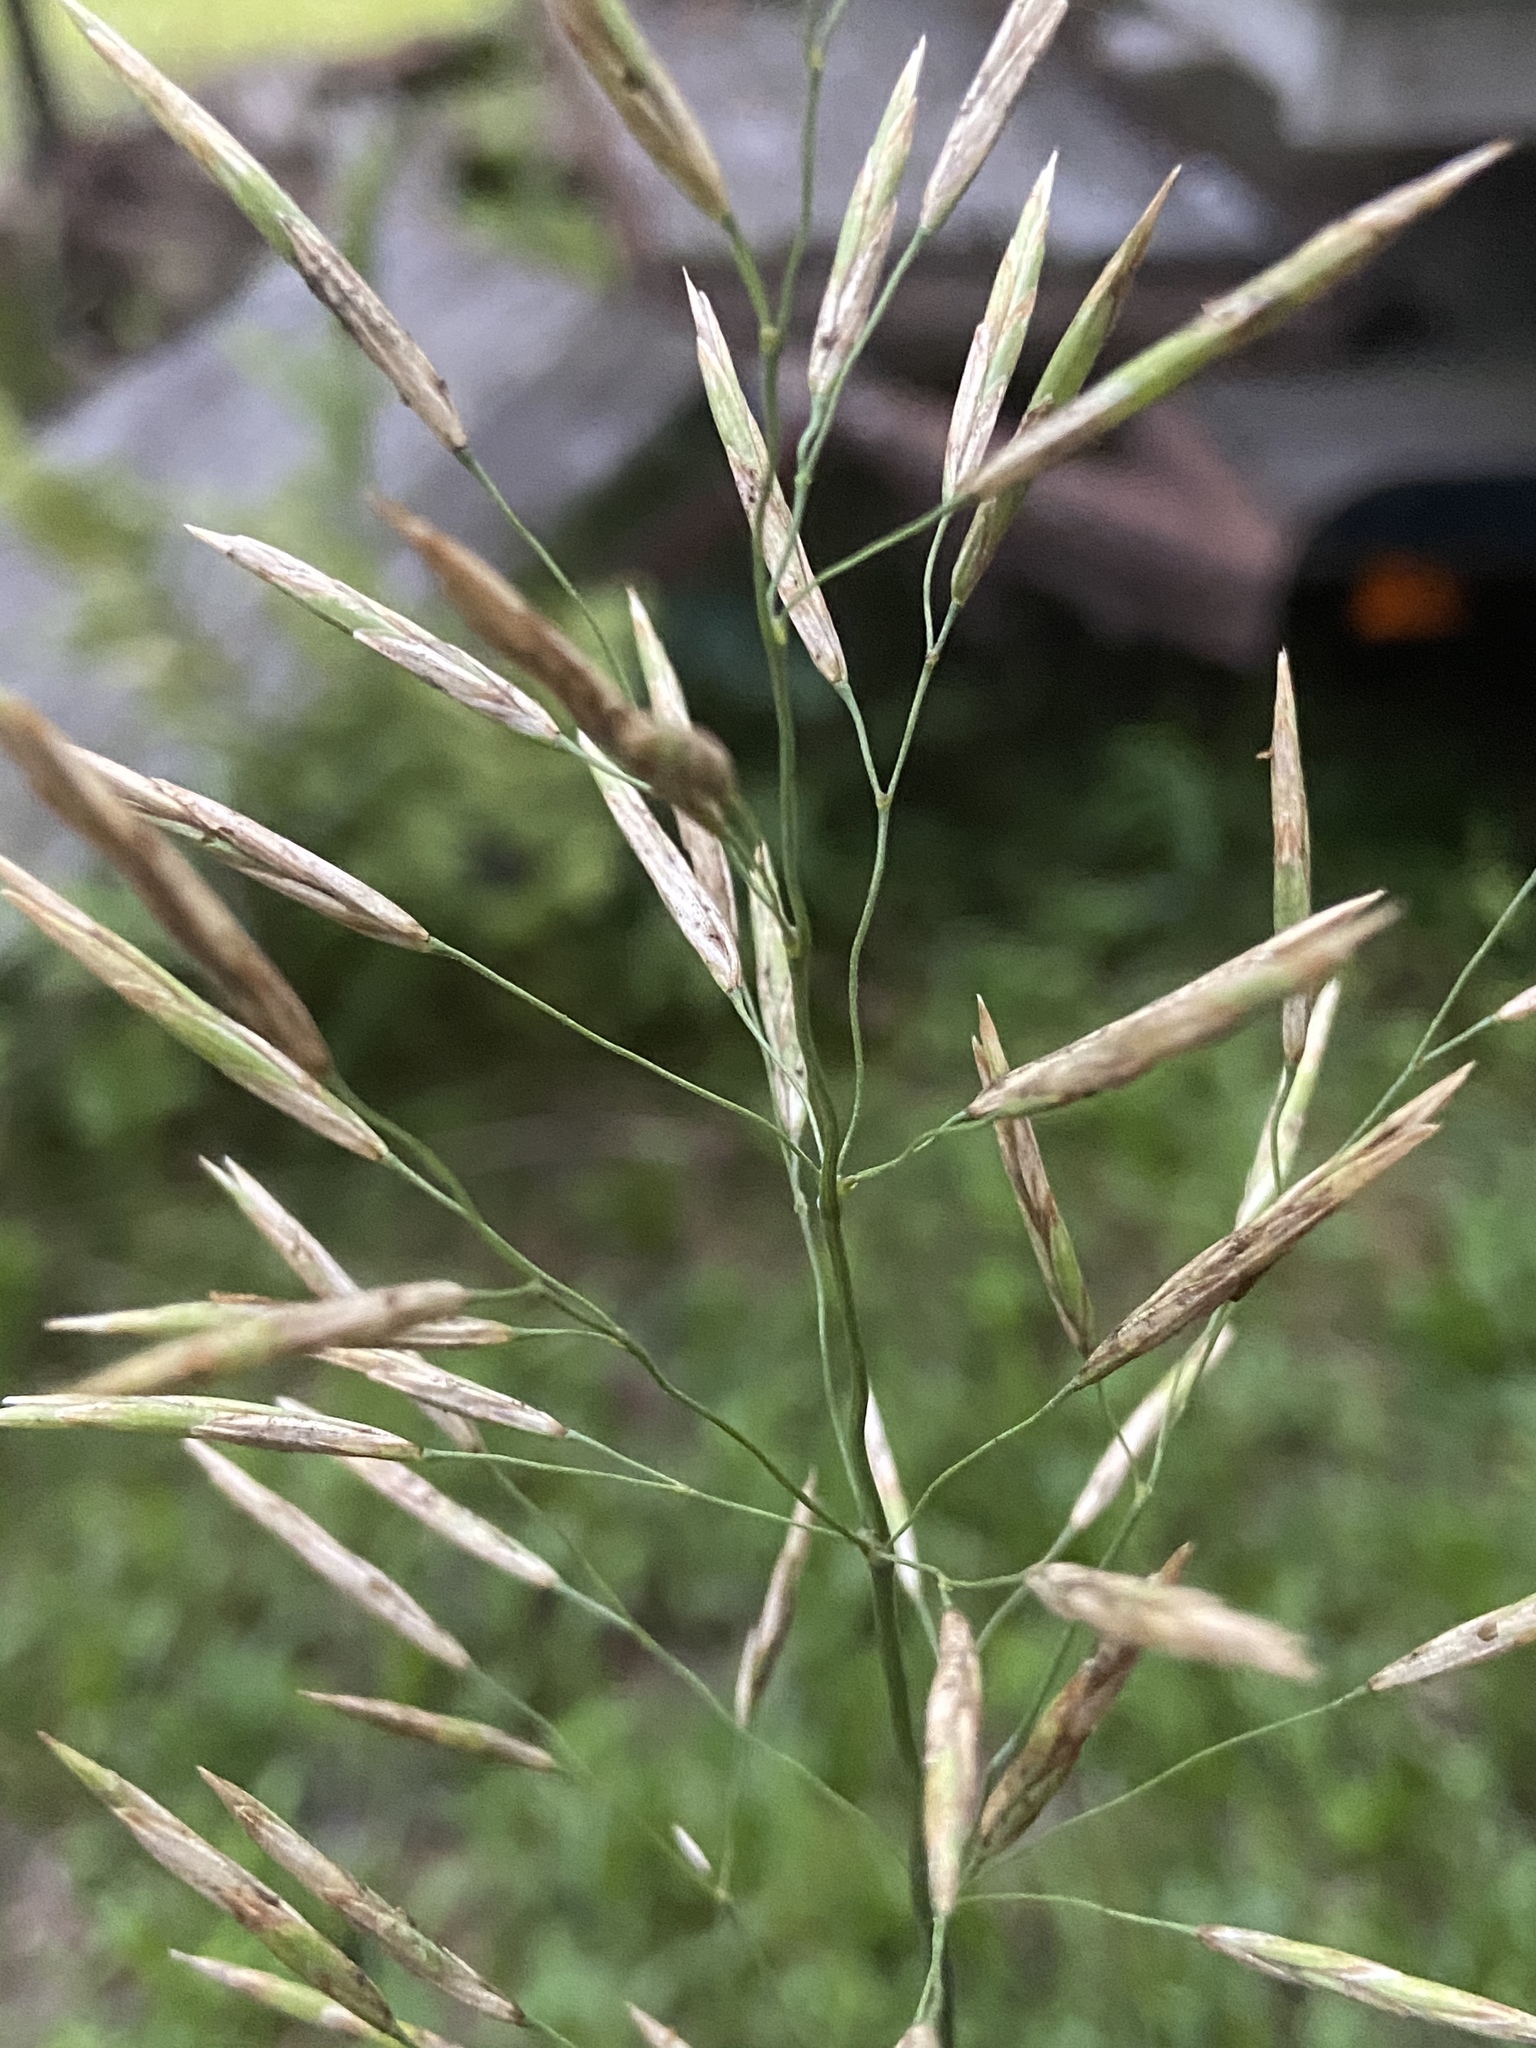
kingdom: Plantae
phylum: Tracheophyta
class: Liliopsida
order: Poales
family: Poaceae
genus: Bromus
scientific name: Bromus inermis
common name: Smooth brome
